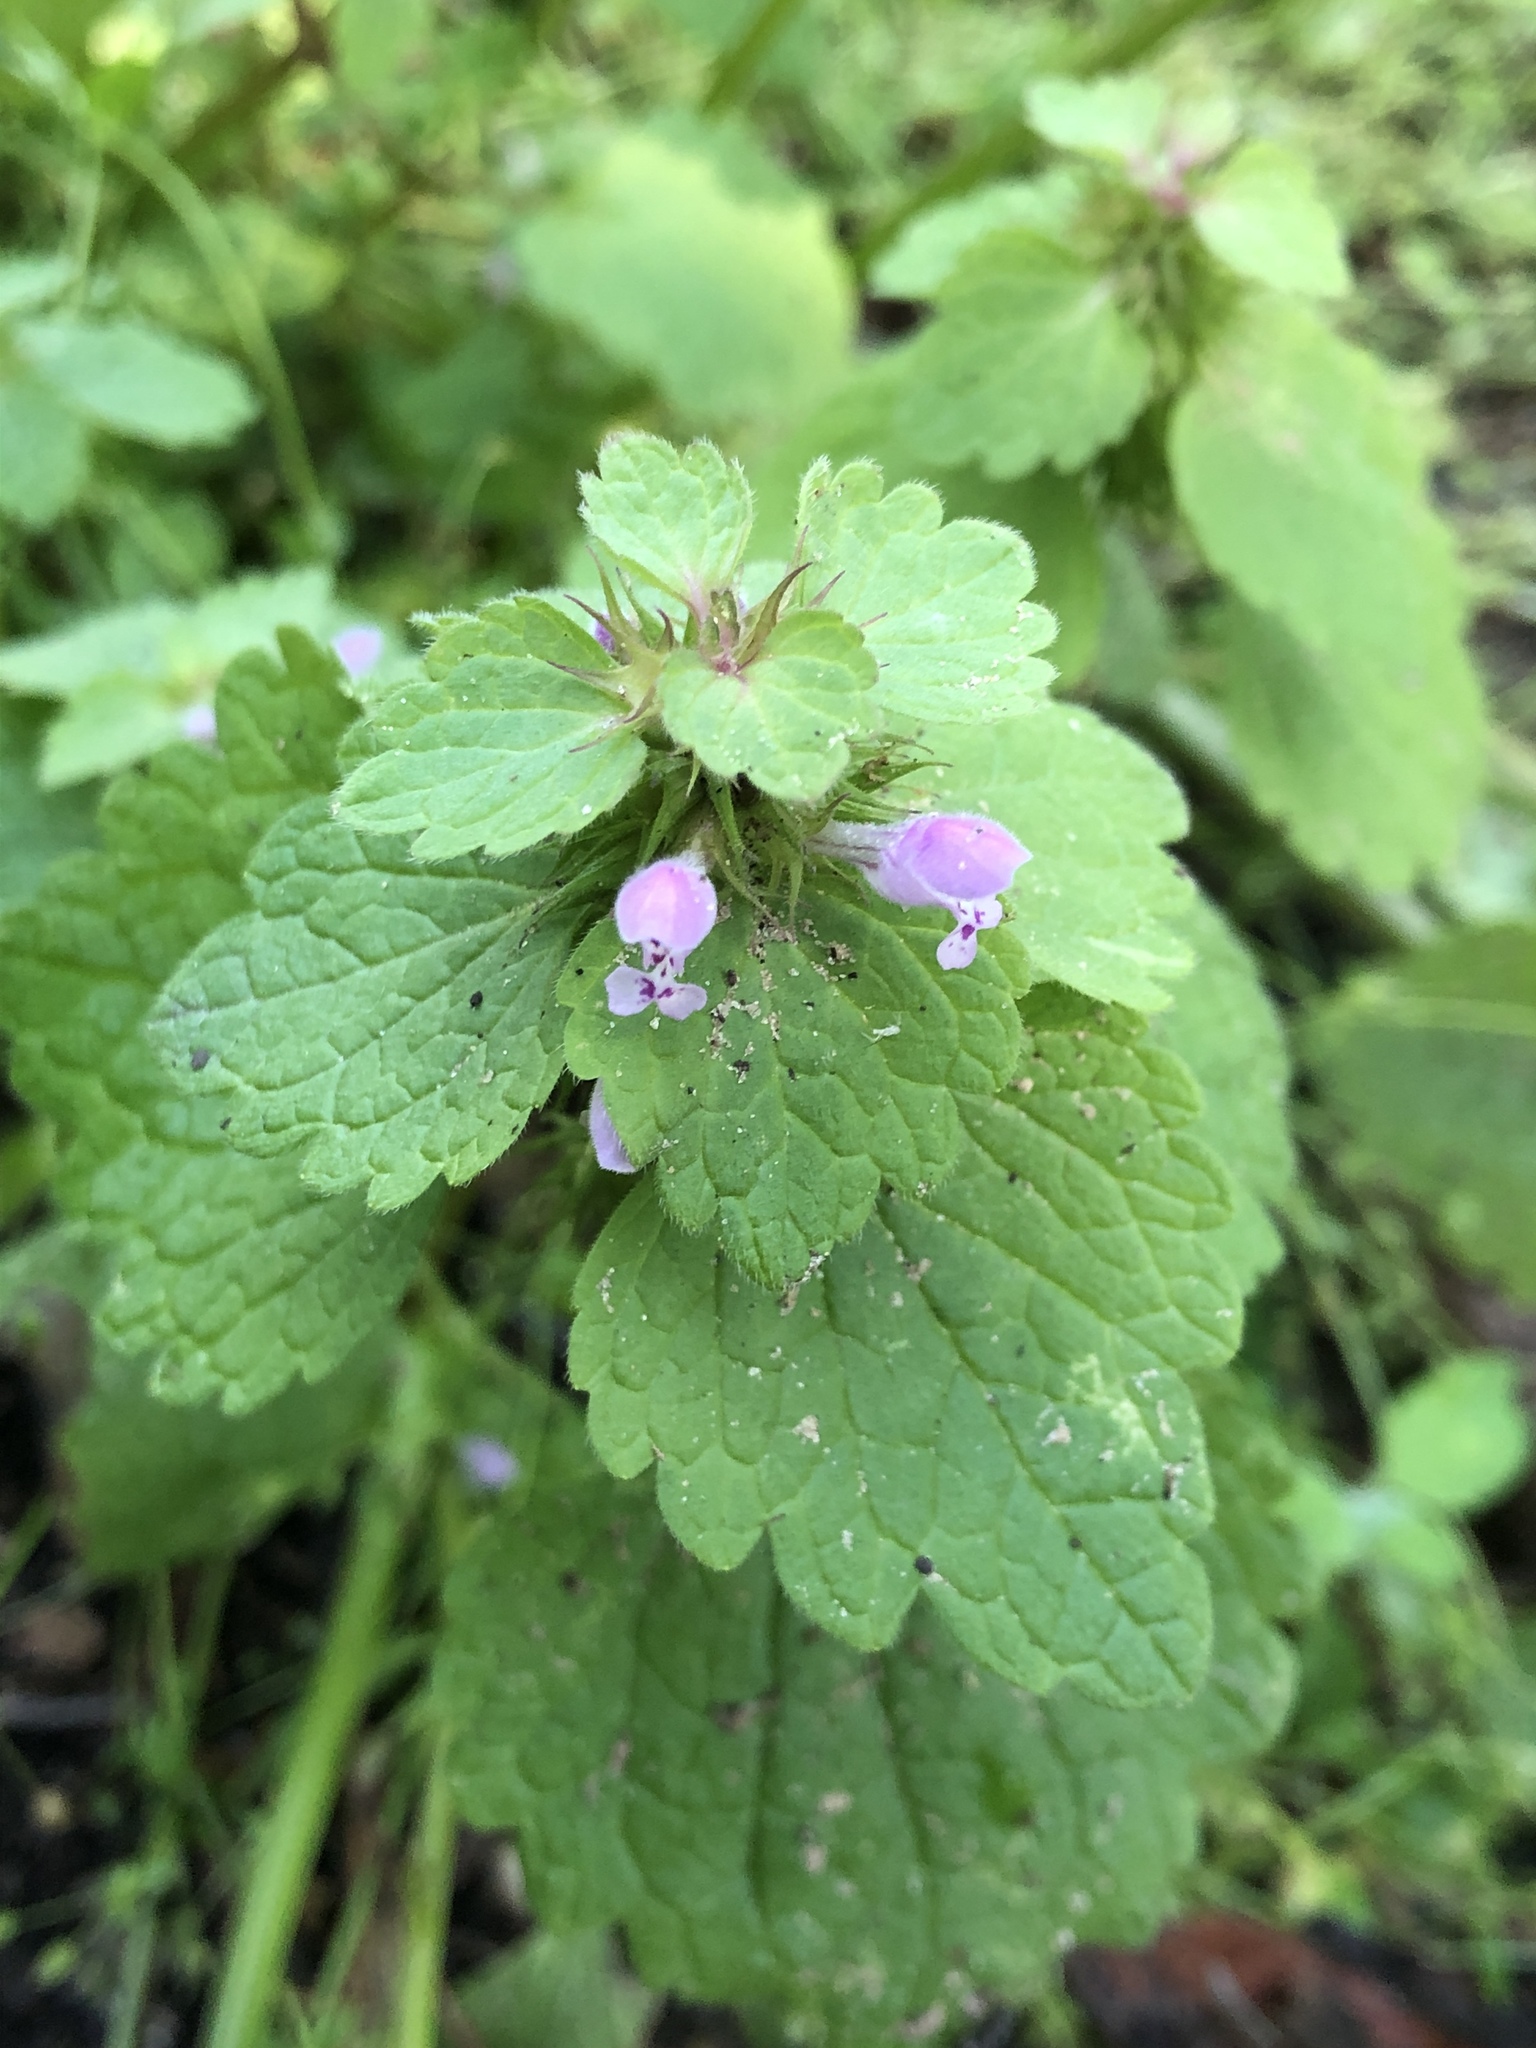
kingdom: Plantae
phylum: Tracheophyta
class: Magnoliopsida
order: Lamiales
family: Lamiaceae
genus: Lamium
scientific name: Lamium purpureum
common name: Red dead-nettle
